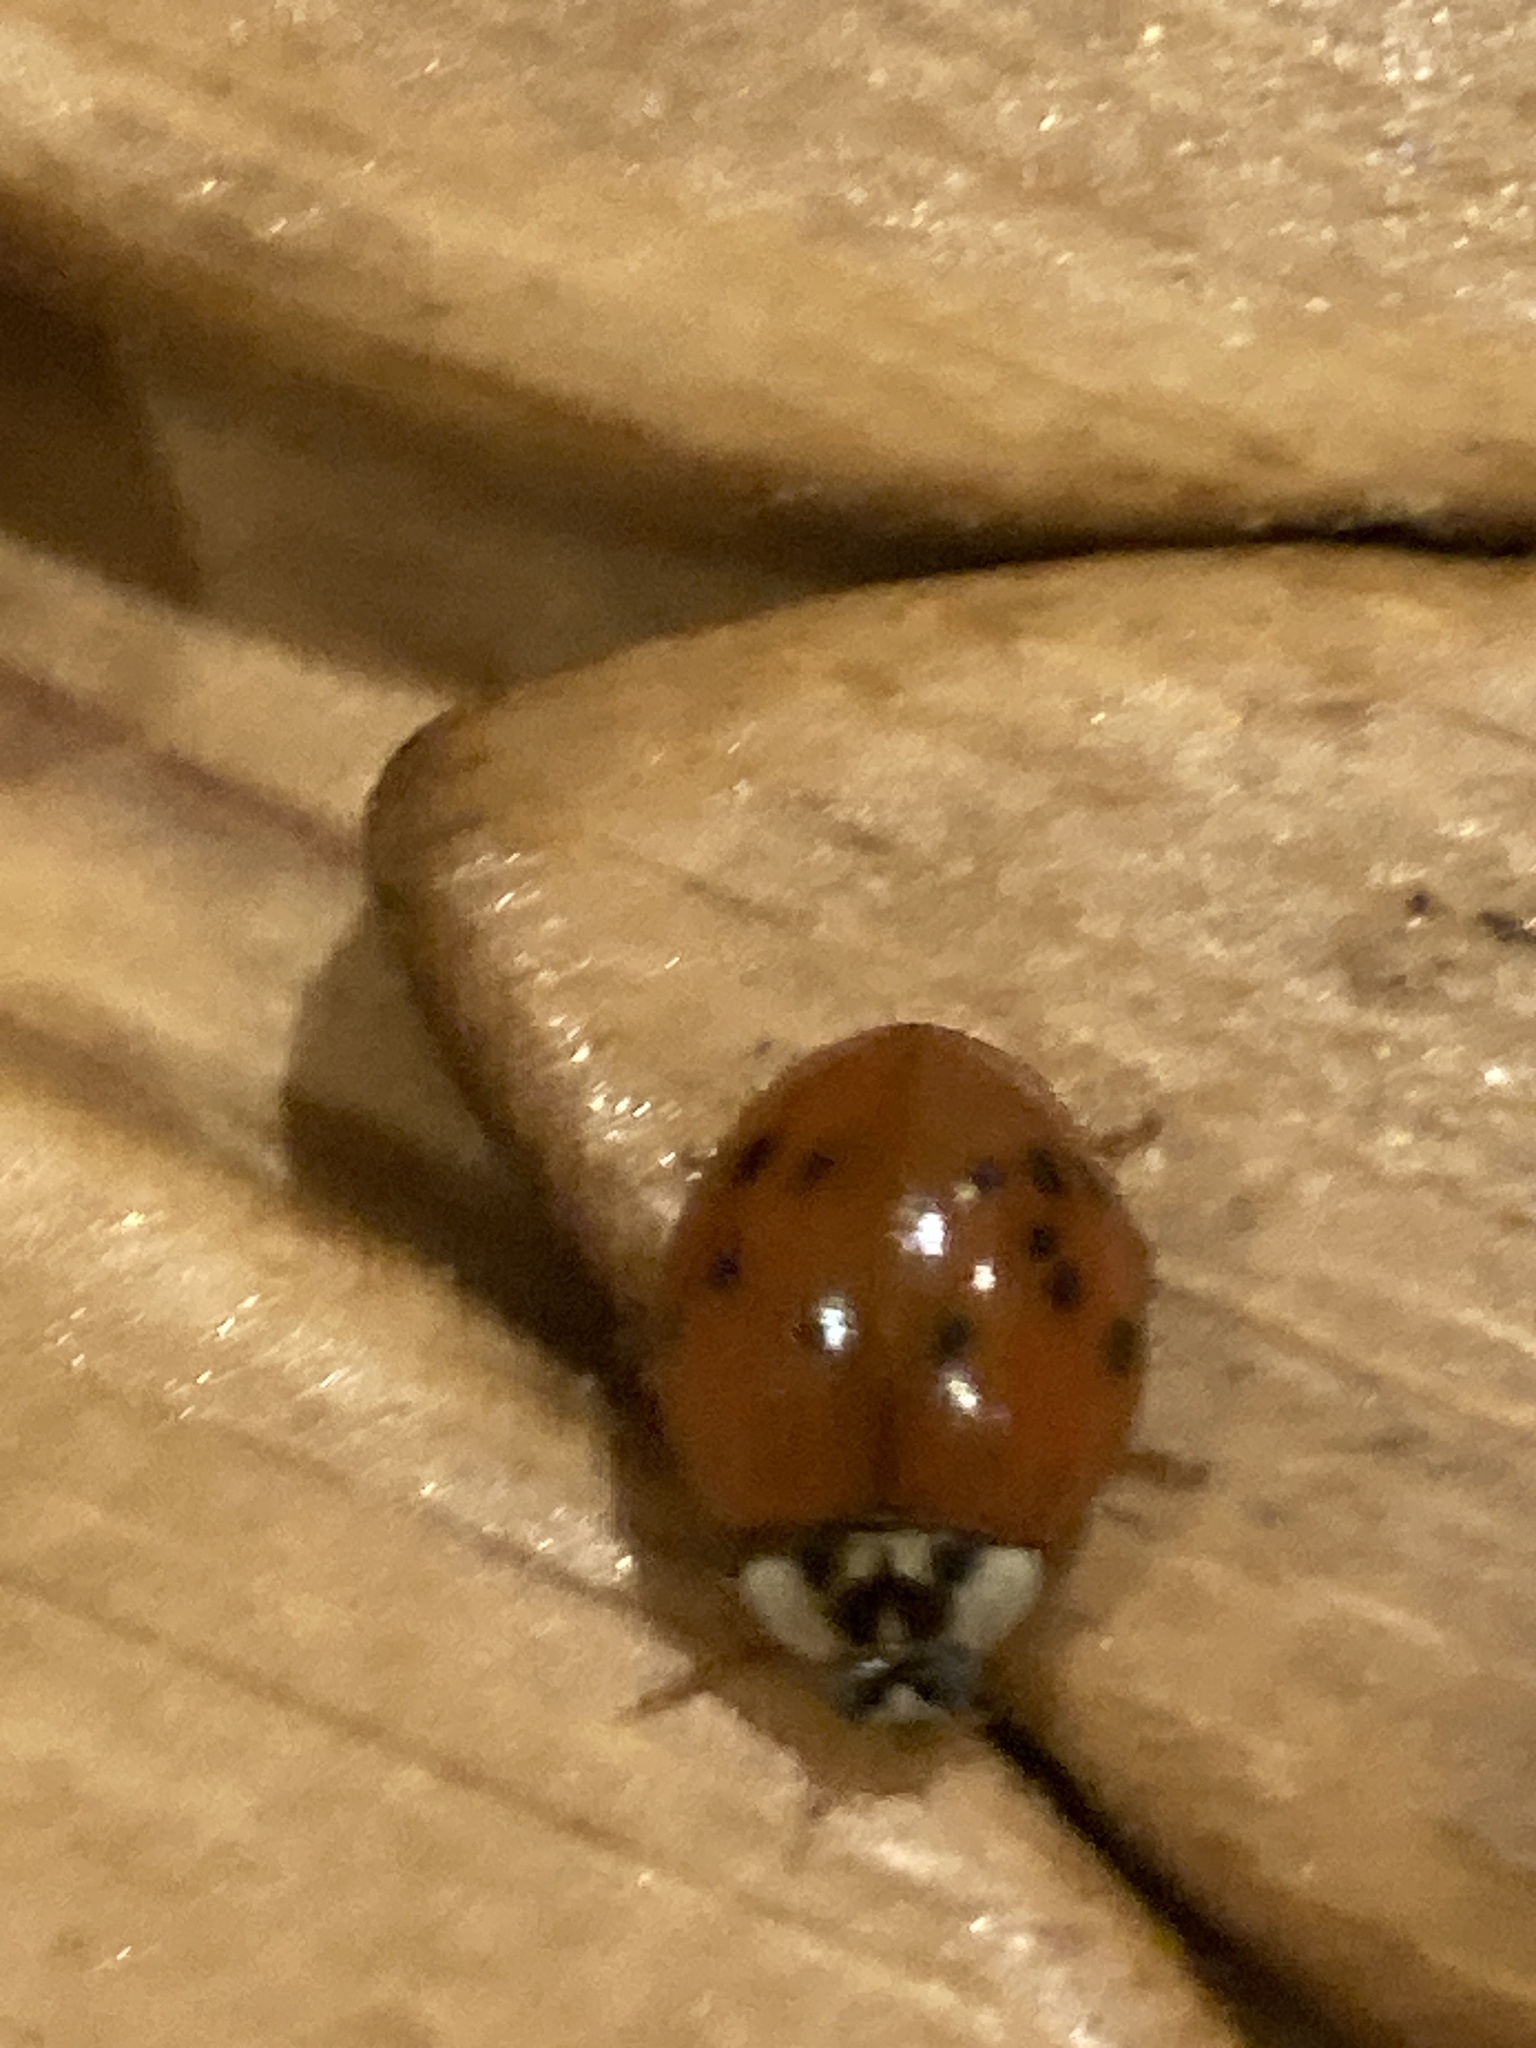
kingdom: Animalia
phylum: Arthropoda
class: Insecta
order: Coleoptera
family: Coccinellidae
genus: Harmonia
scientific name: Harmonia axyridis
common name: Harlequin ladybird
